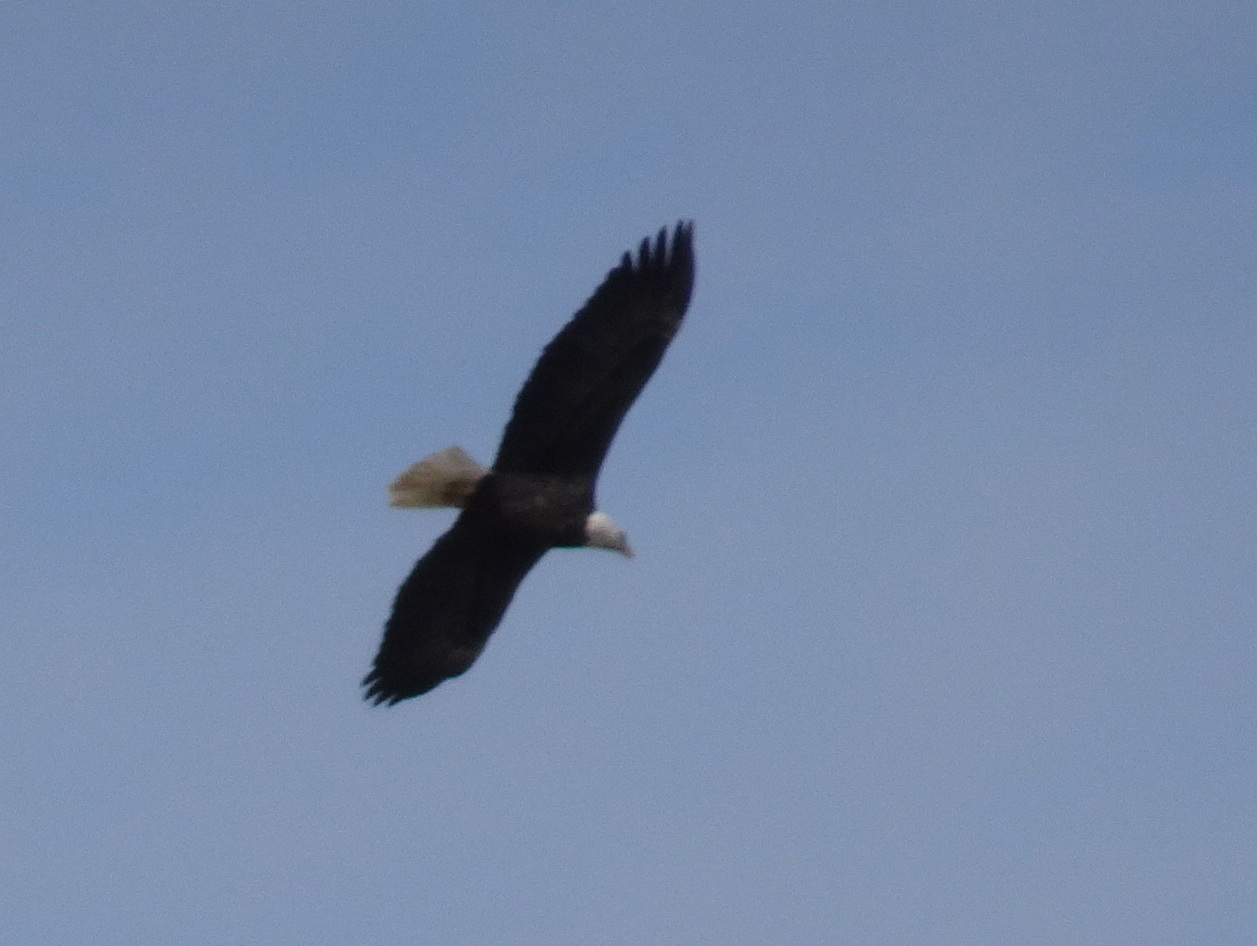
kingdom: Animalia
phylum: Chordata
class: Aves
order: Accipitriformes
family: Accipitridae
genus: Haliaeetus
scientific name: Haliaeetus leucocephalus
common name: Bald eagle
